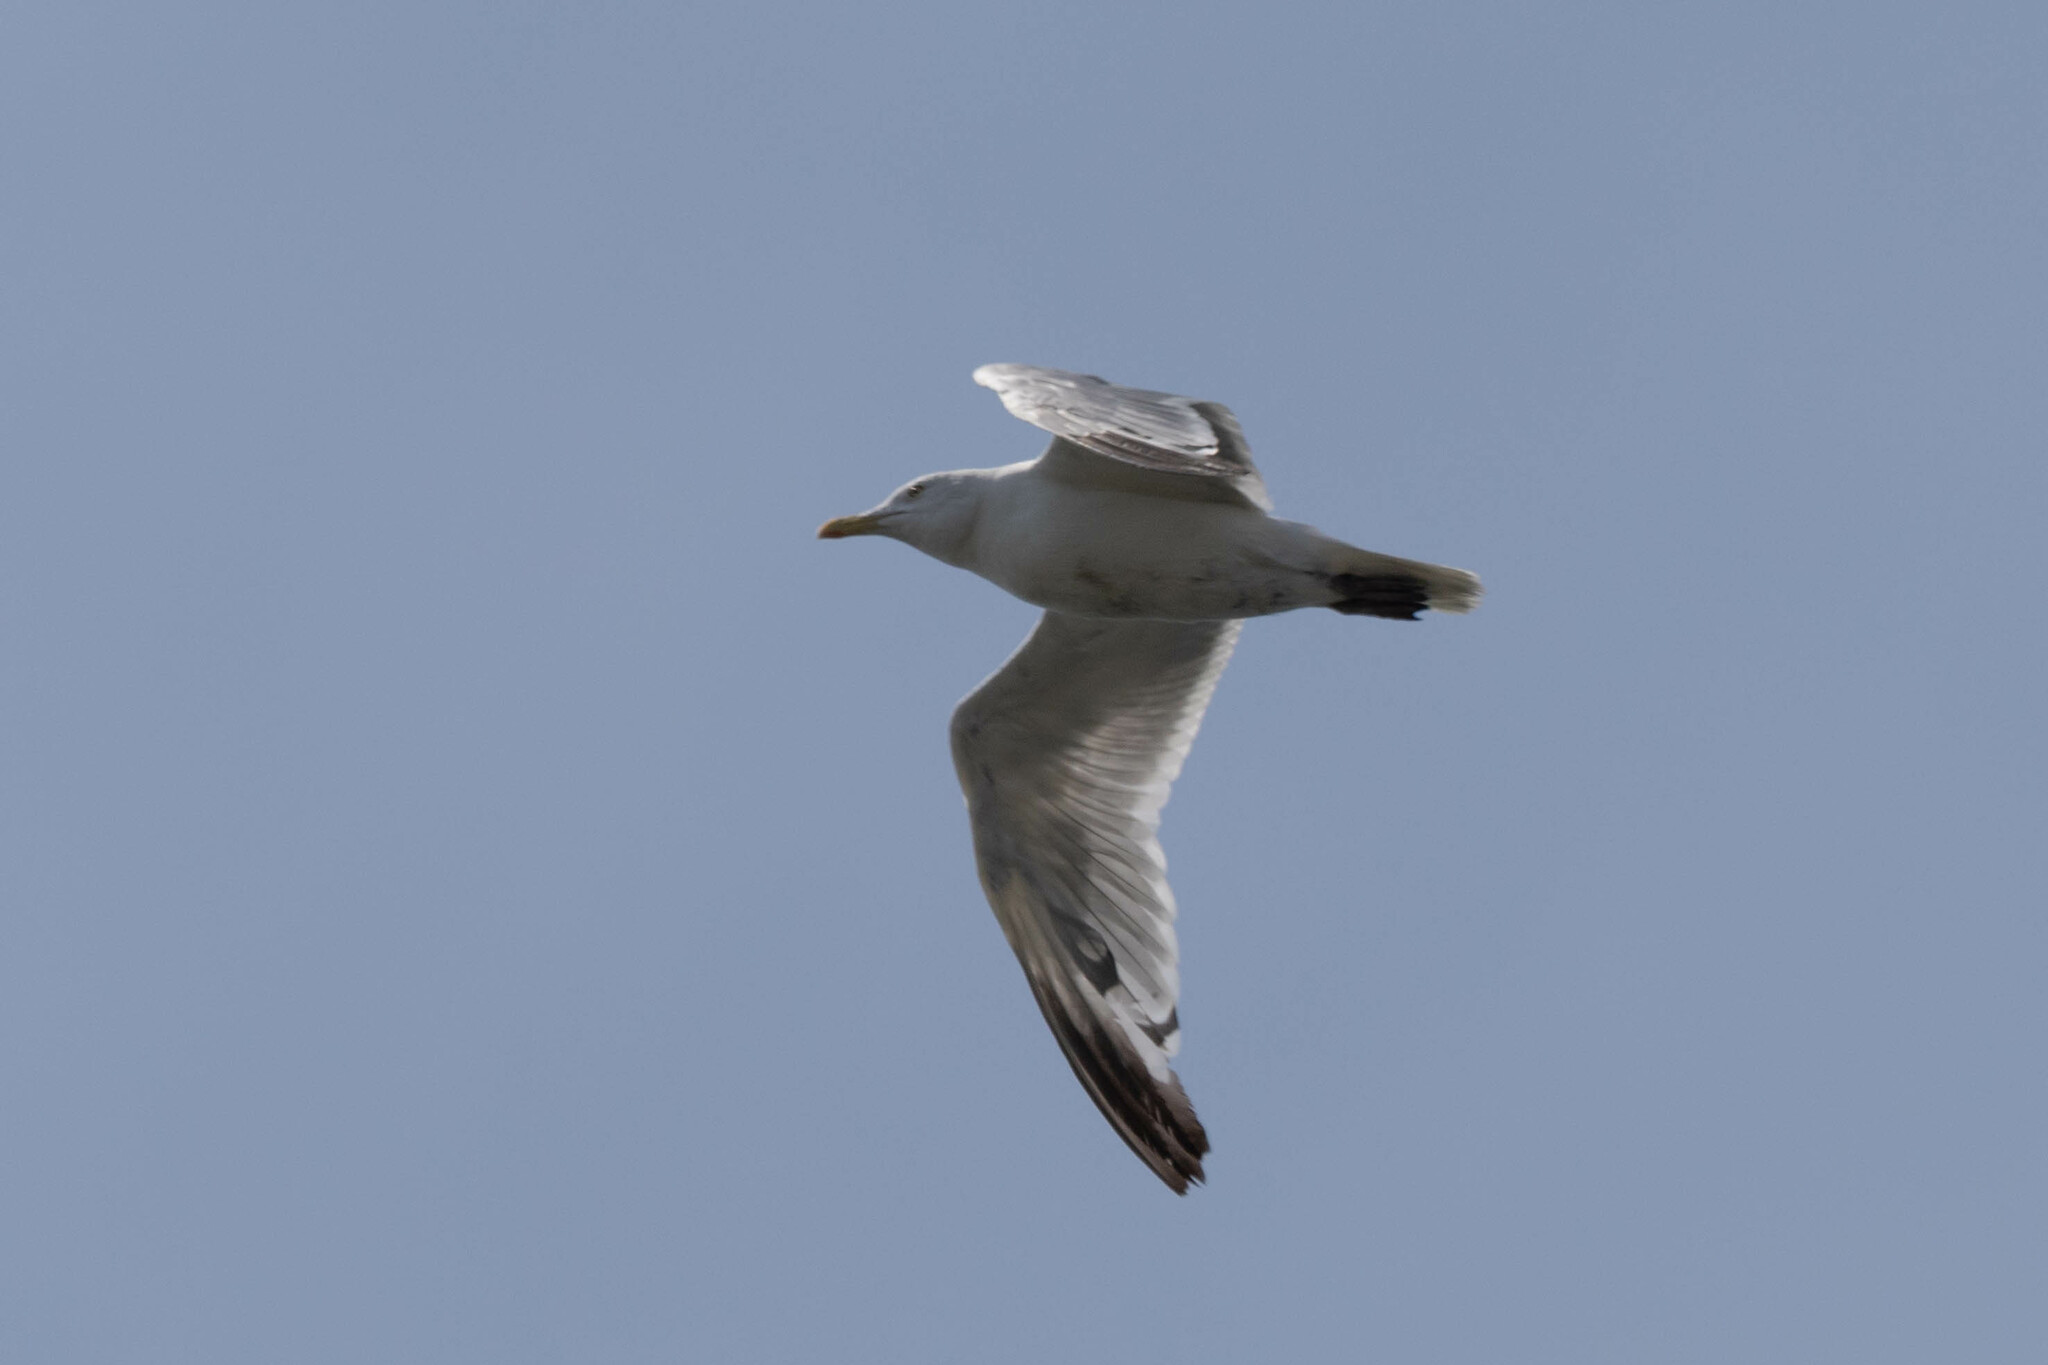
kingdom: Animalia
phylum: Chordata
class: Aves
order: Charadriiformes
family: Laridae
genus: Larus
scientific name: Larus argentatus
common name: Herring gull
